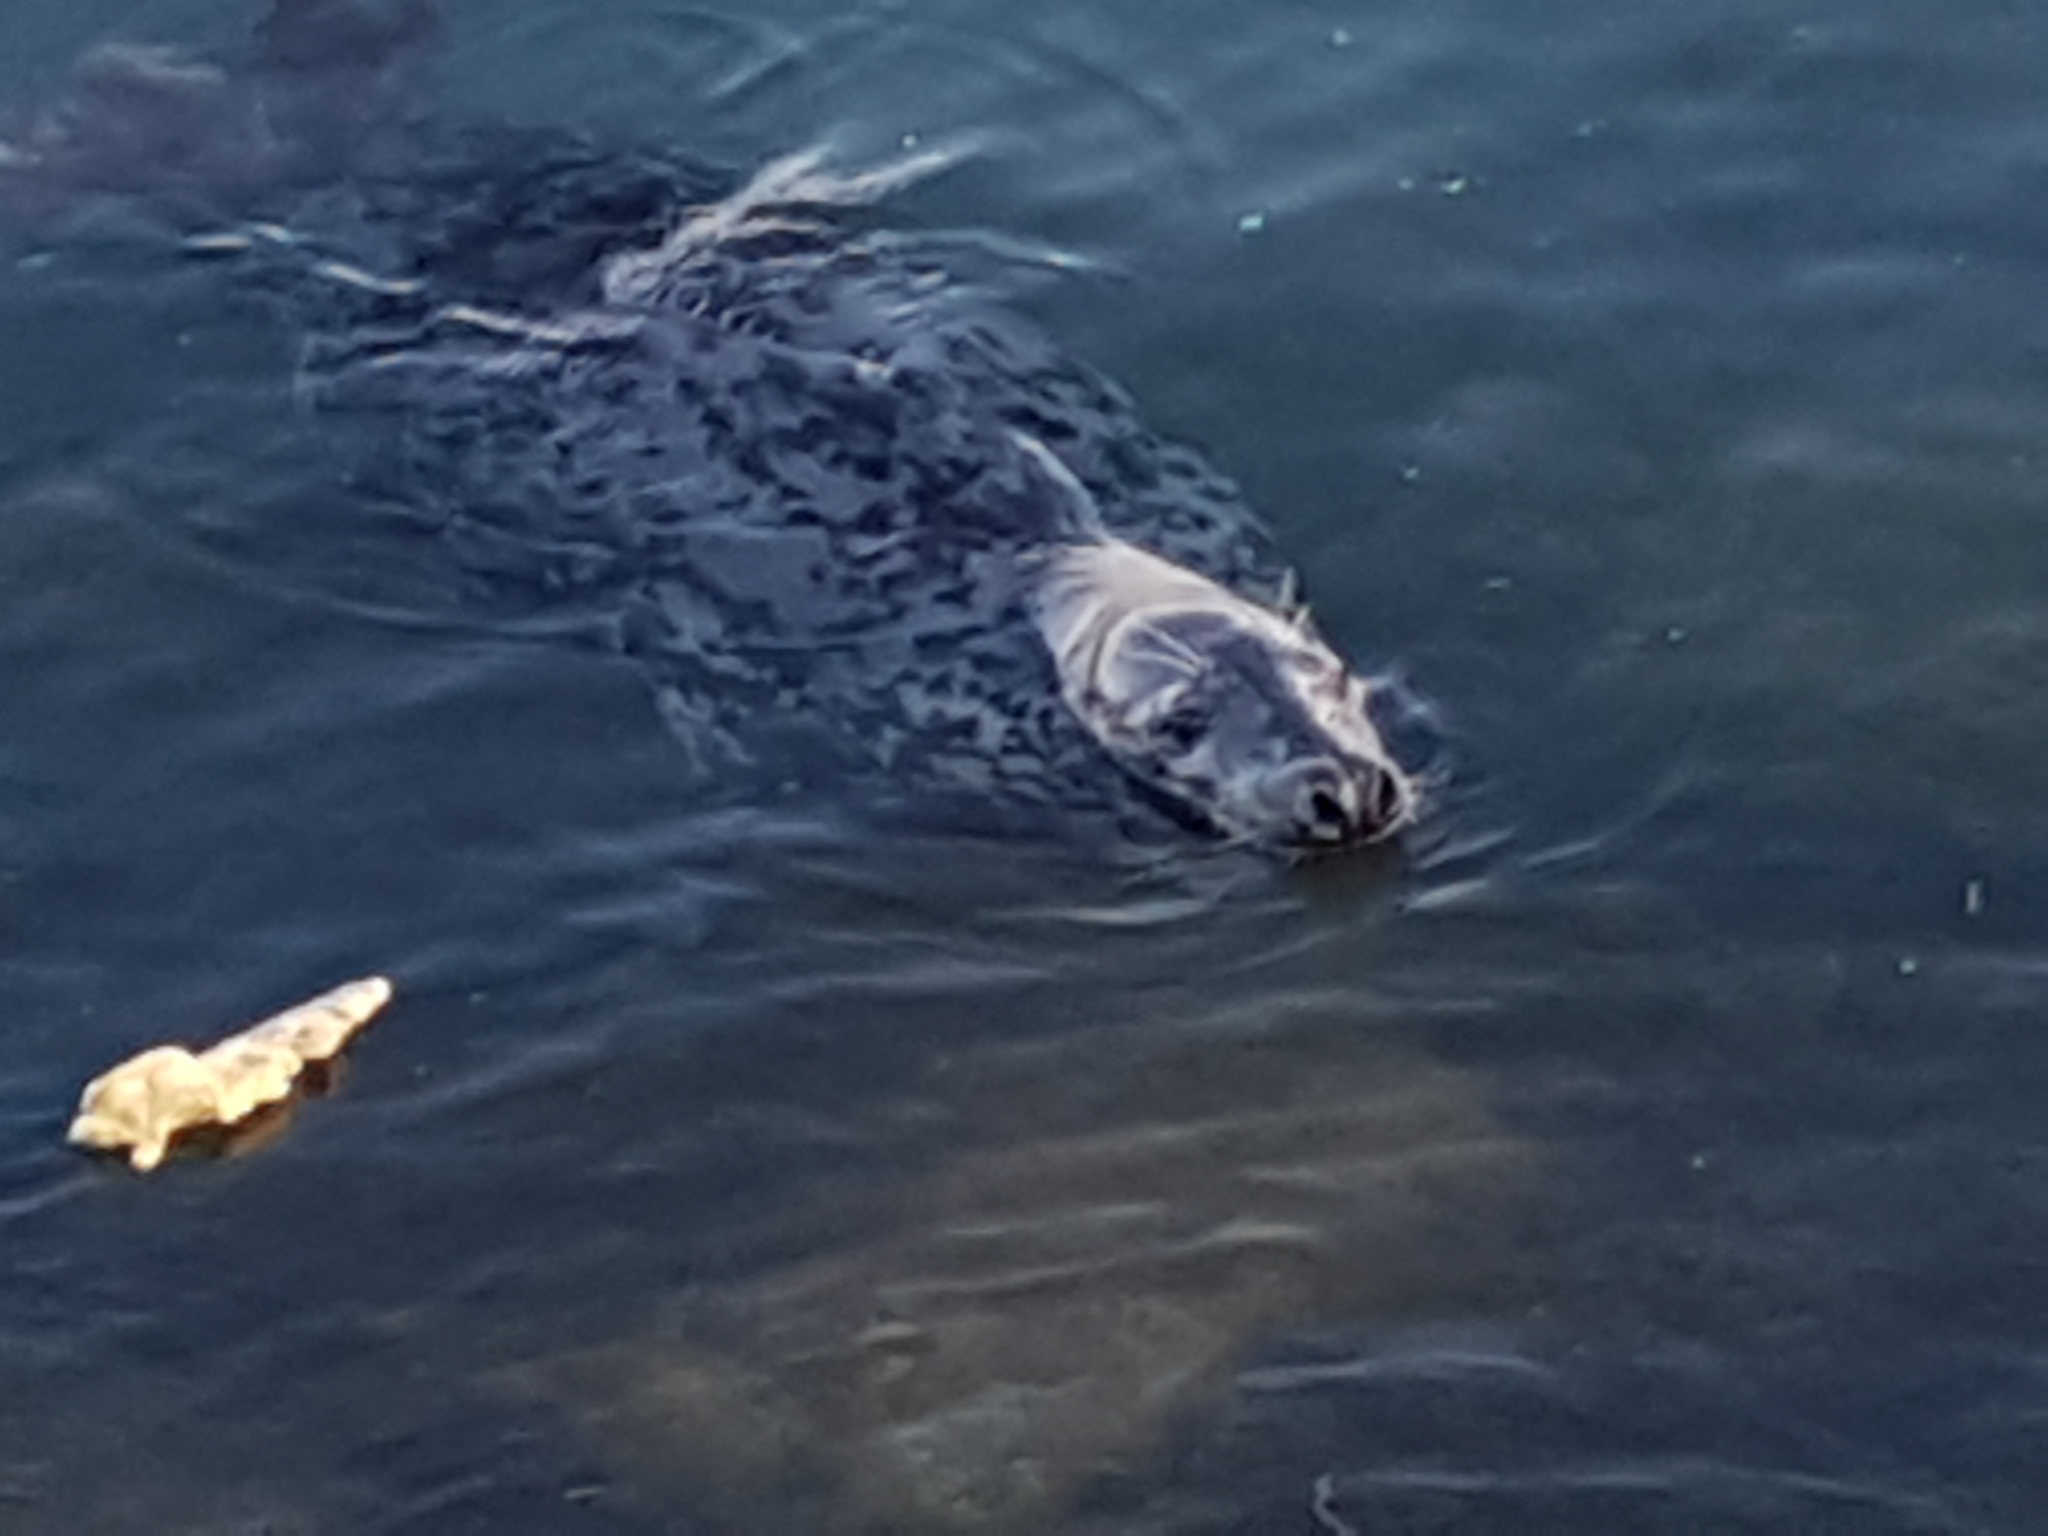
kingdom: Animalia
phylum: Chordata
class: Mammalia
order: Carnivora
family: Phocidae
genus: Halichoerus
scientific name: Halichoerus grypus
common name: Grey seal
